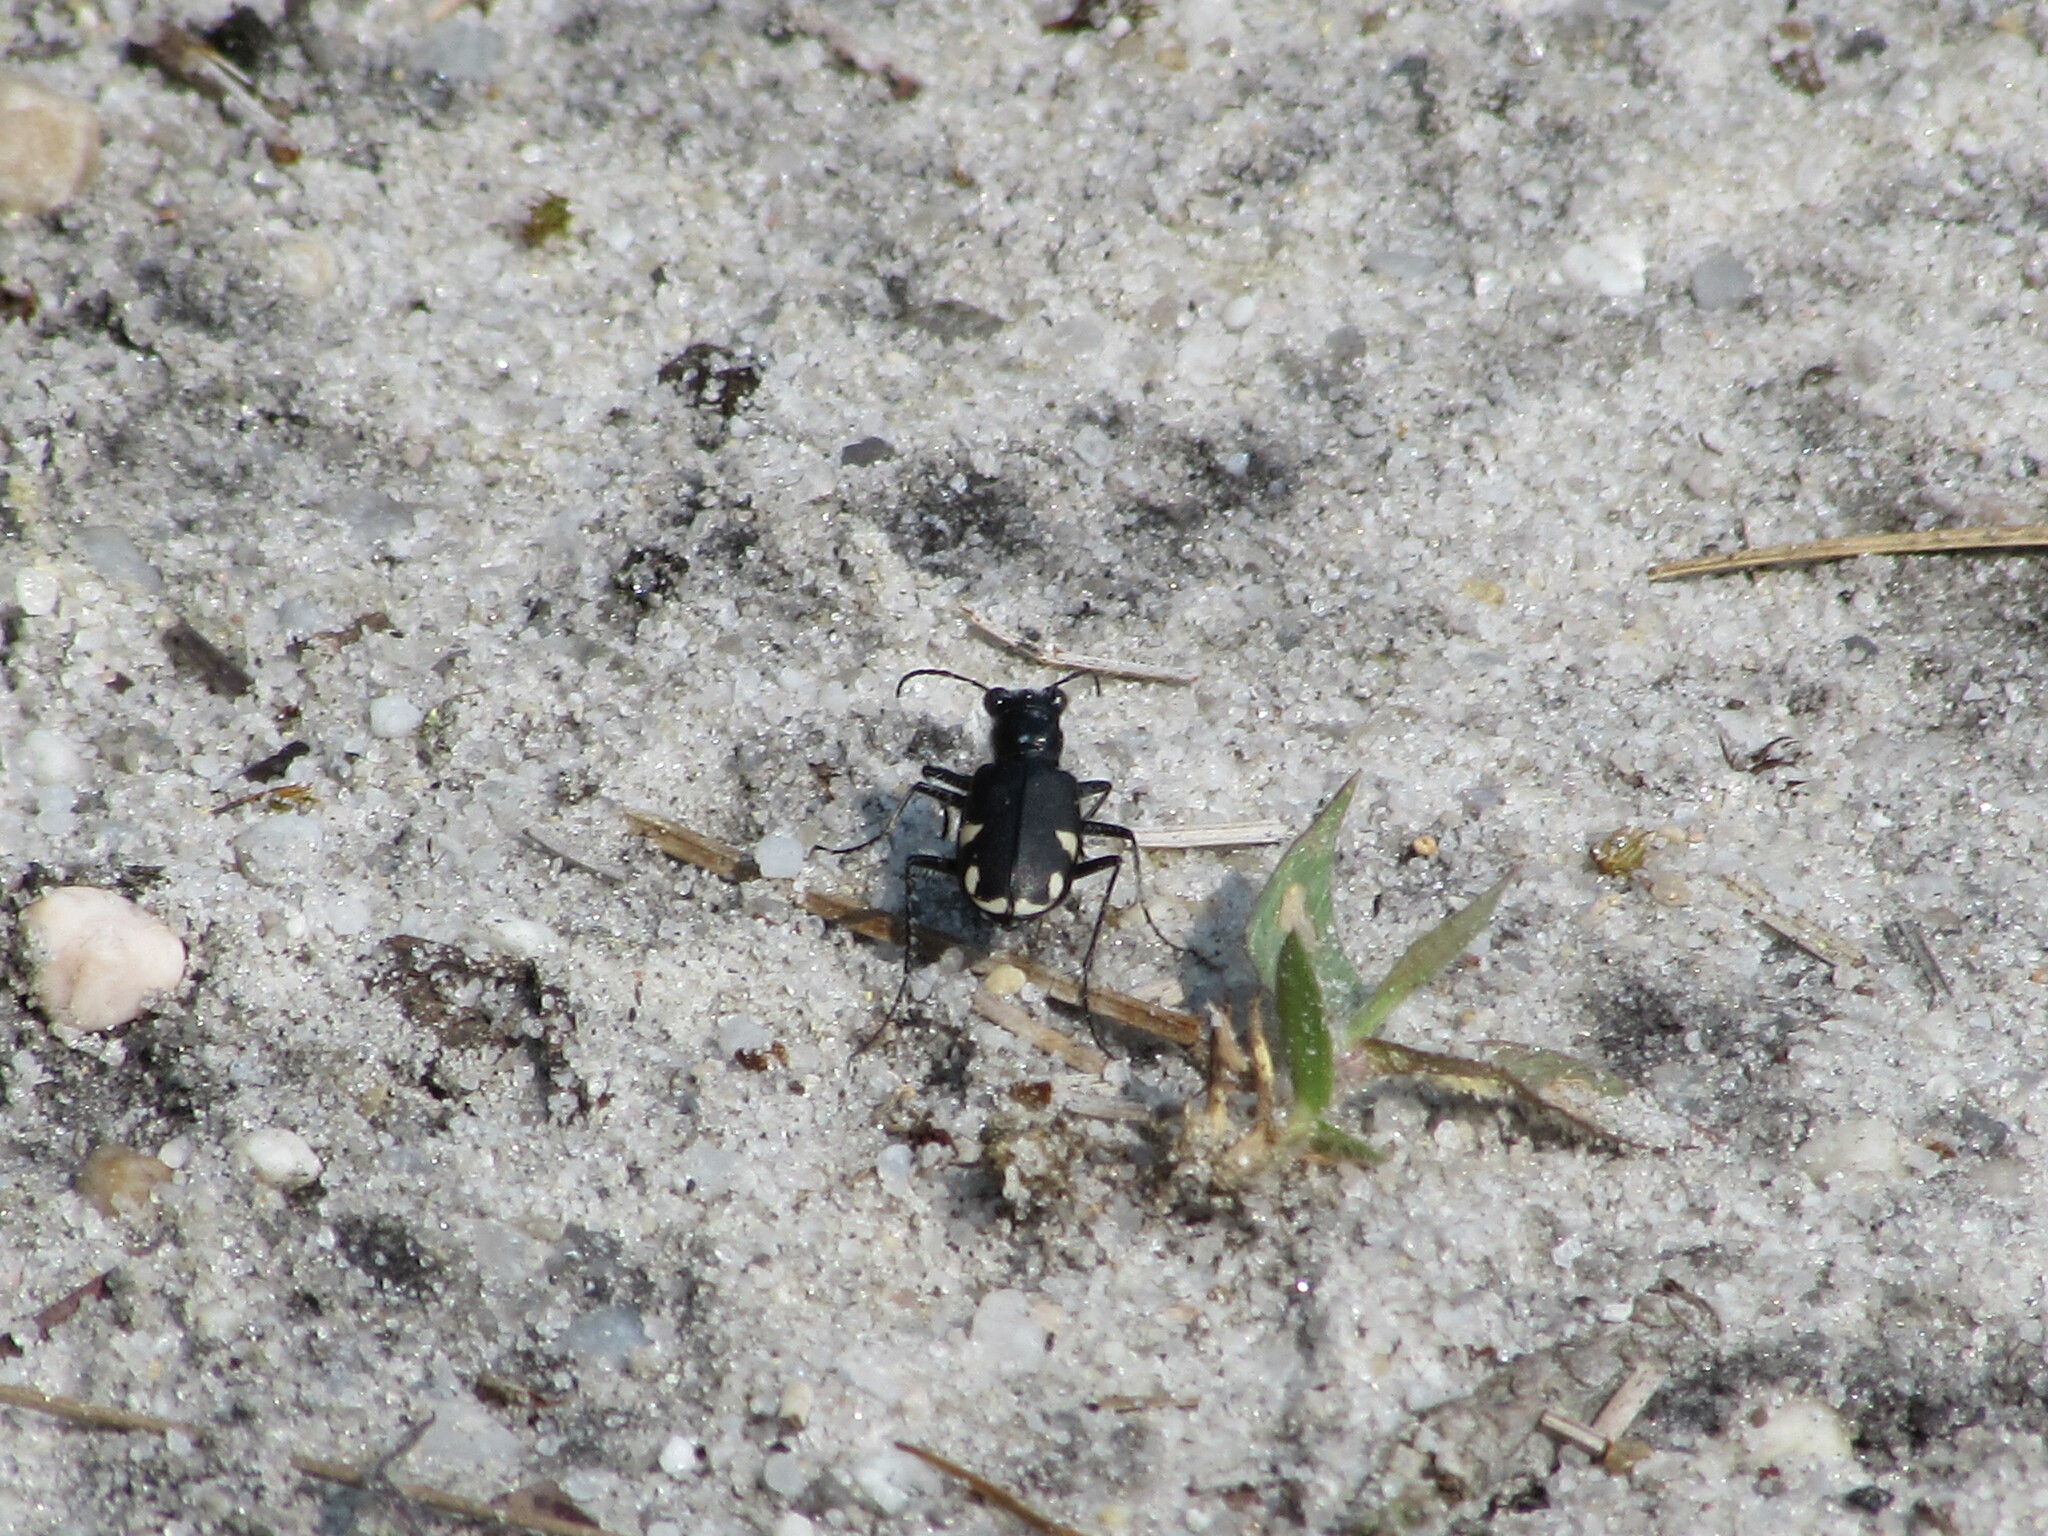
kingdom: Animalia
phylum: Arthropoda
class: Insecta
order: Coleoptera
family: Carabidae
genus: Cicindela
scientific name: Cicindela scutellaris
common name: Festive tiger beetle
